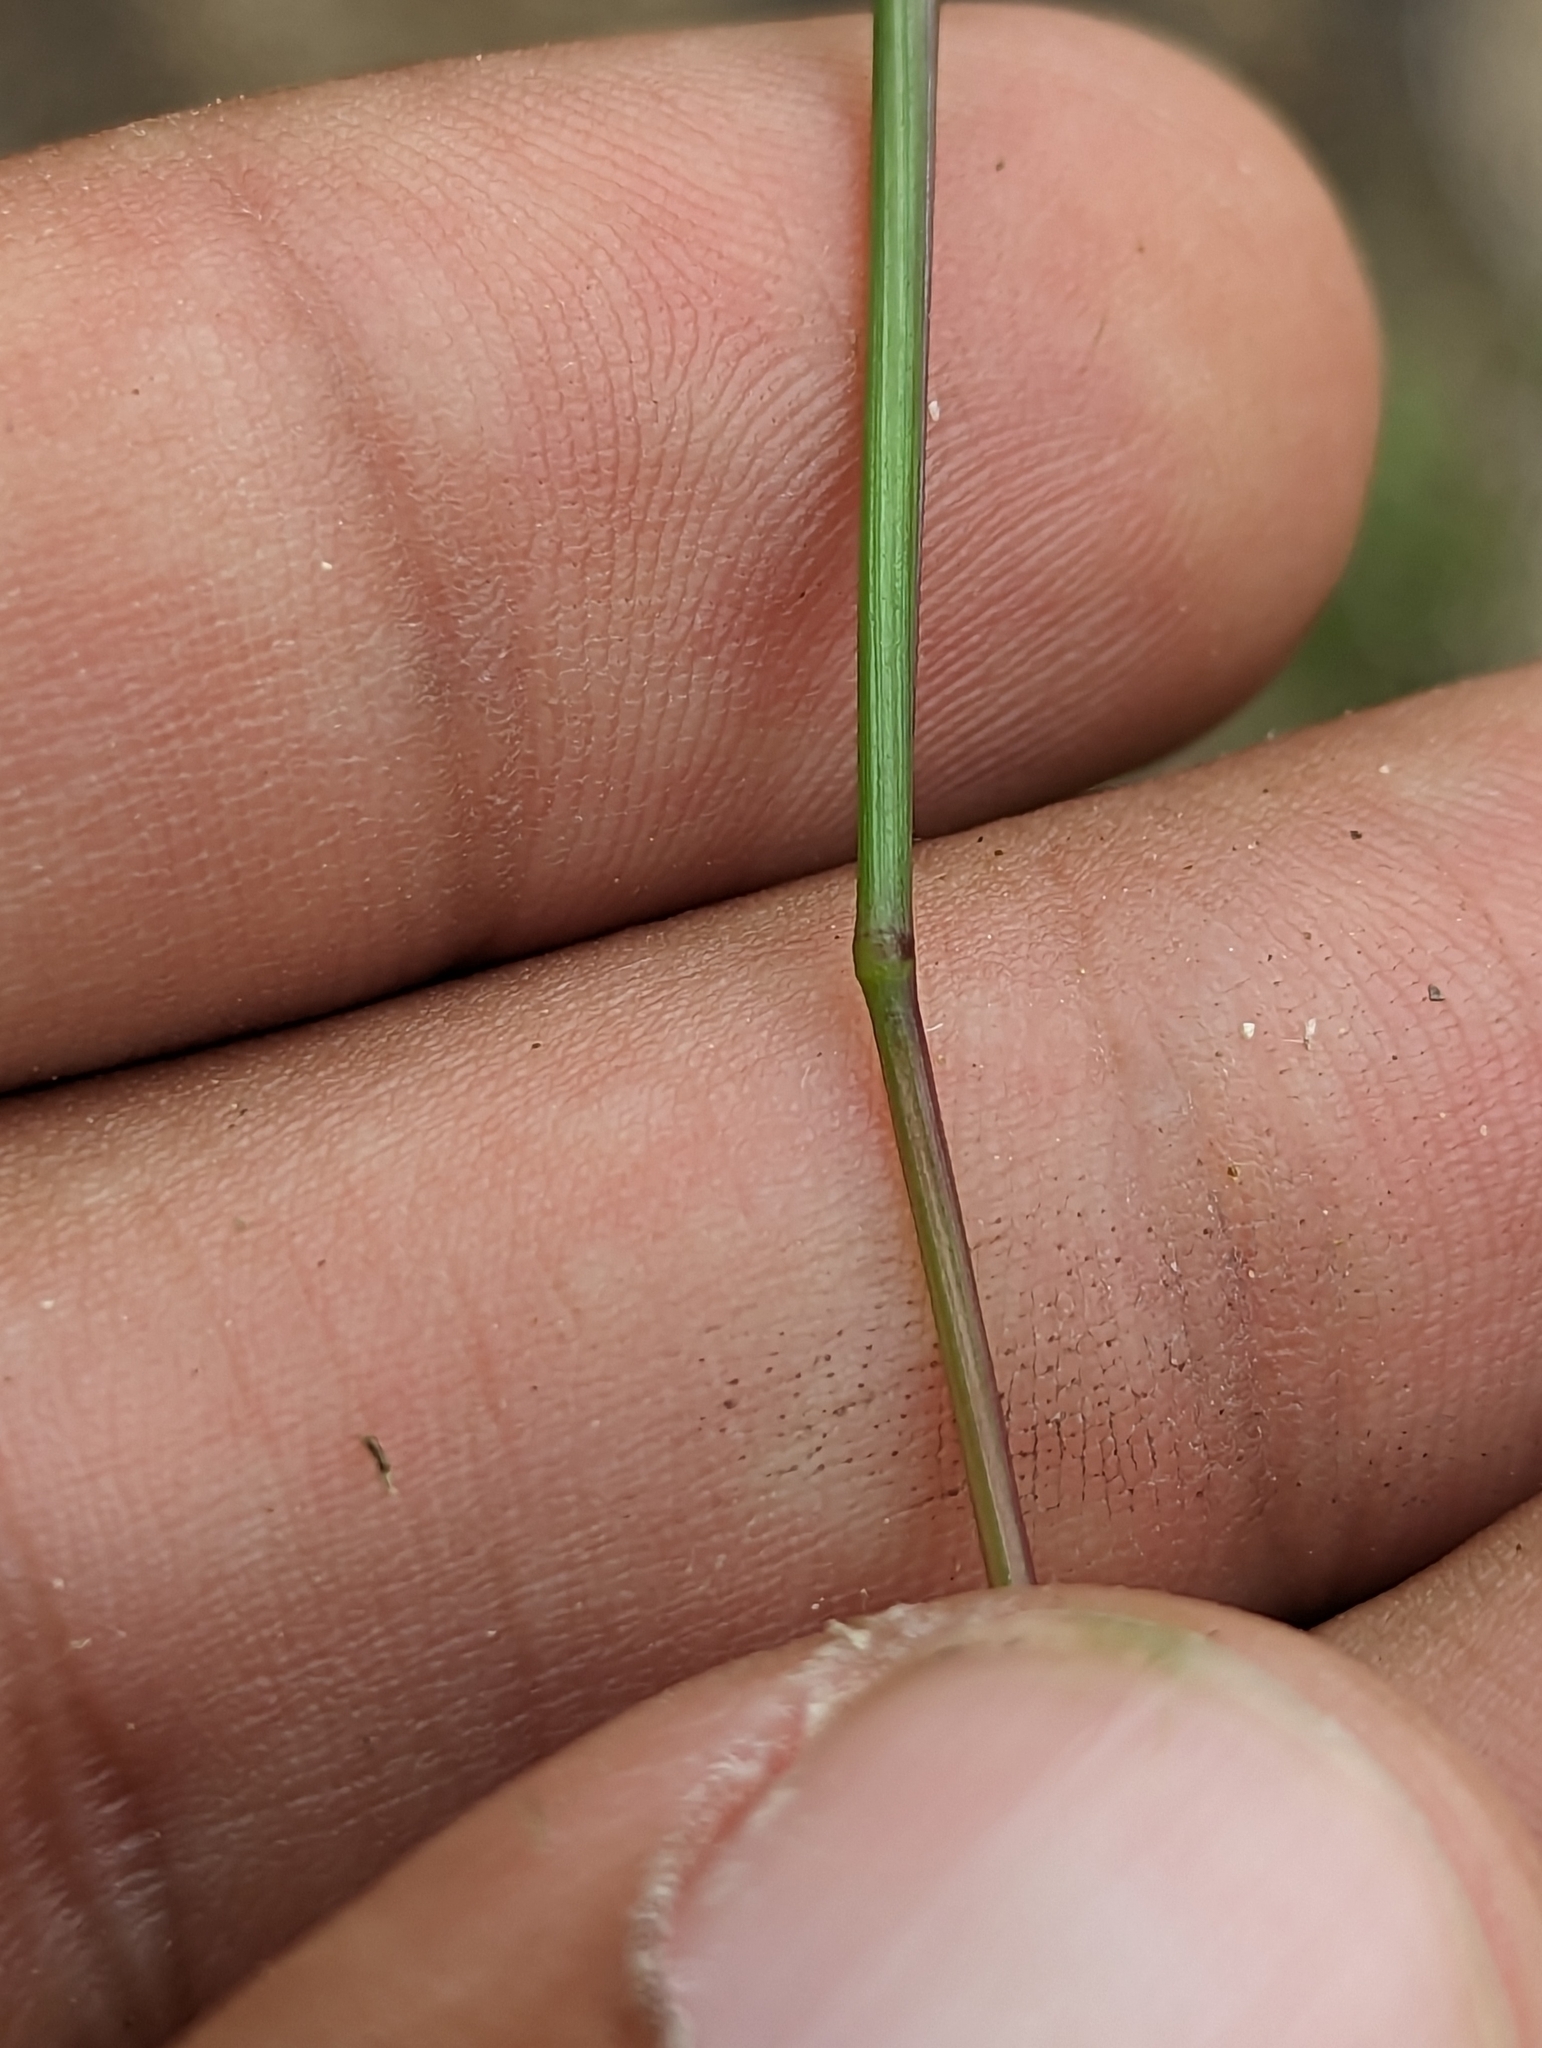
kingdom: Plantae
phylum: Tracheophyta
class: Liliopsida
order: Poales
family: Poaceae
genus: Urochloa
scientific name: Urochloa arizonica
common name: Arizona signal grass
